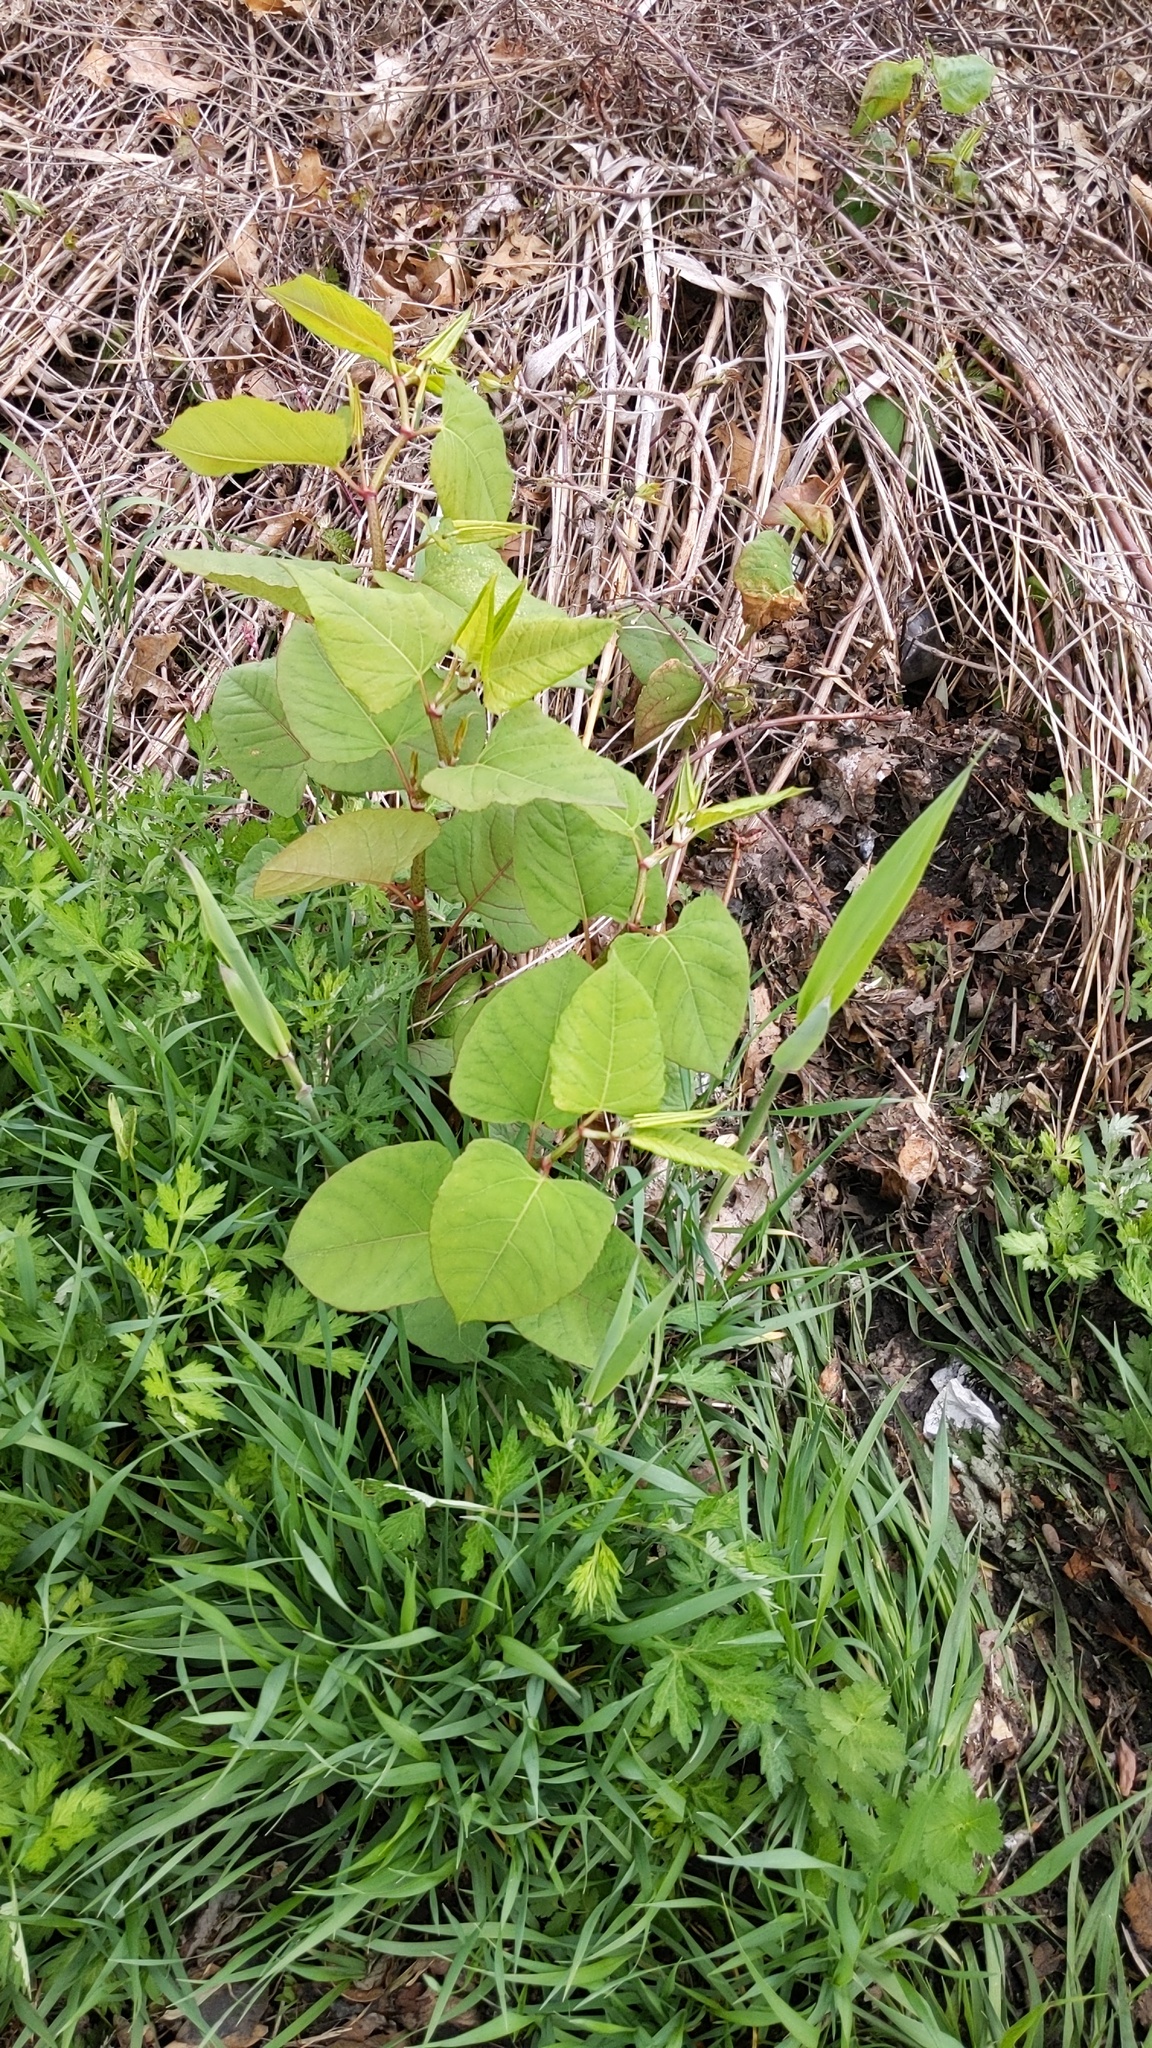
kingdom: Plantae
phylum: Tracheophyta
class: Magnoliopsida
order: Caryophyllales
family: Polygonaceae
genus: Reynoutria
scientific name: Reynoutria japonica
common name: Japanese knotweed
